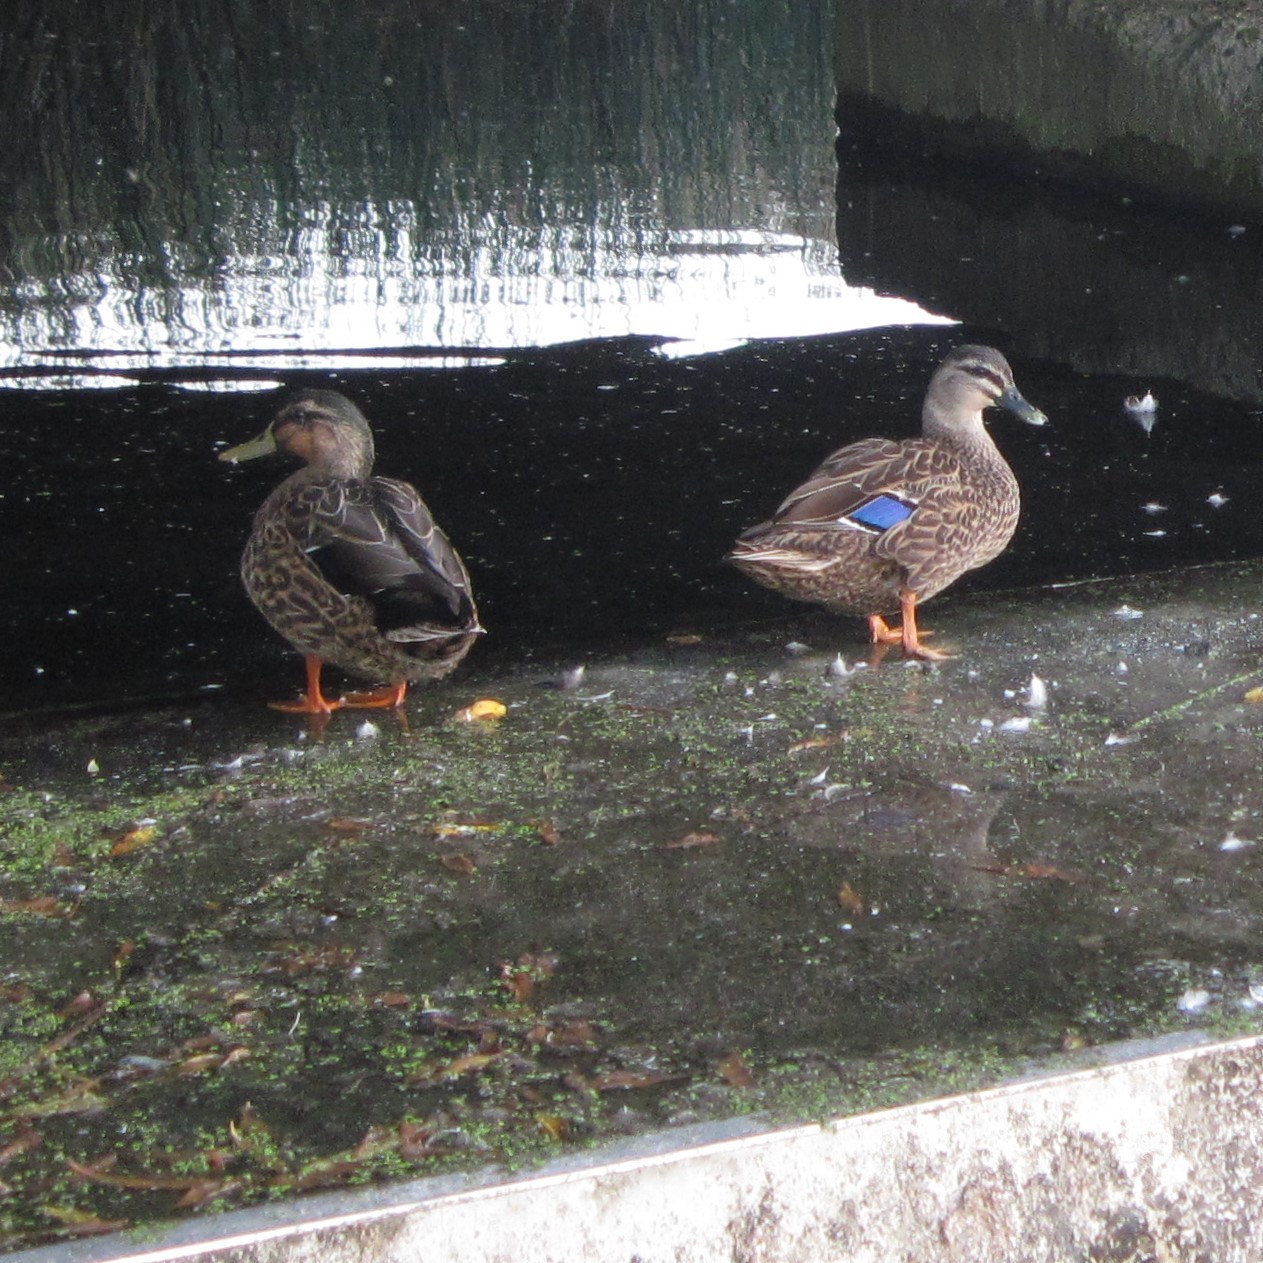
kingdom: Animalia
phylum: Chordata
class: Aves
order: Anseriformes
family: Anatidae
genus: Anas
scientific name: Anas
